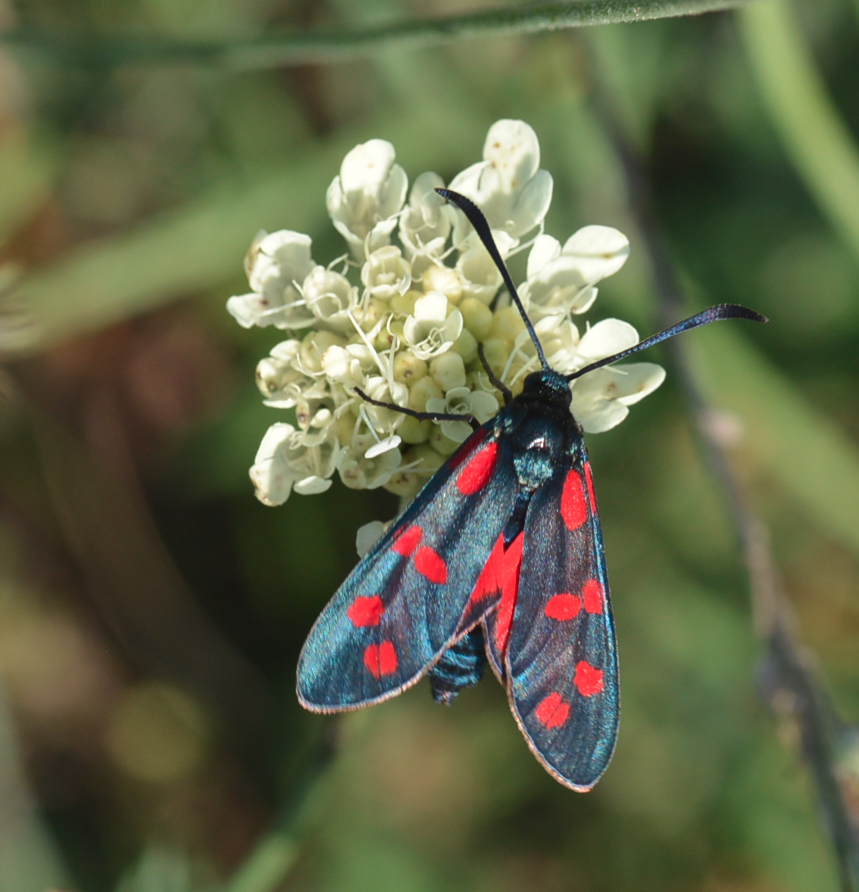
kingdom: Animalia
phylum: Arthropoda
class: Insecta
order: Lepidoptera
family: Zygaenidae
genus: Zygaena
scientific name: Zygaena filipendulae
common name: Six-spot burnet
